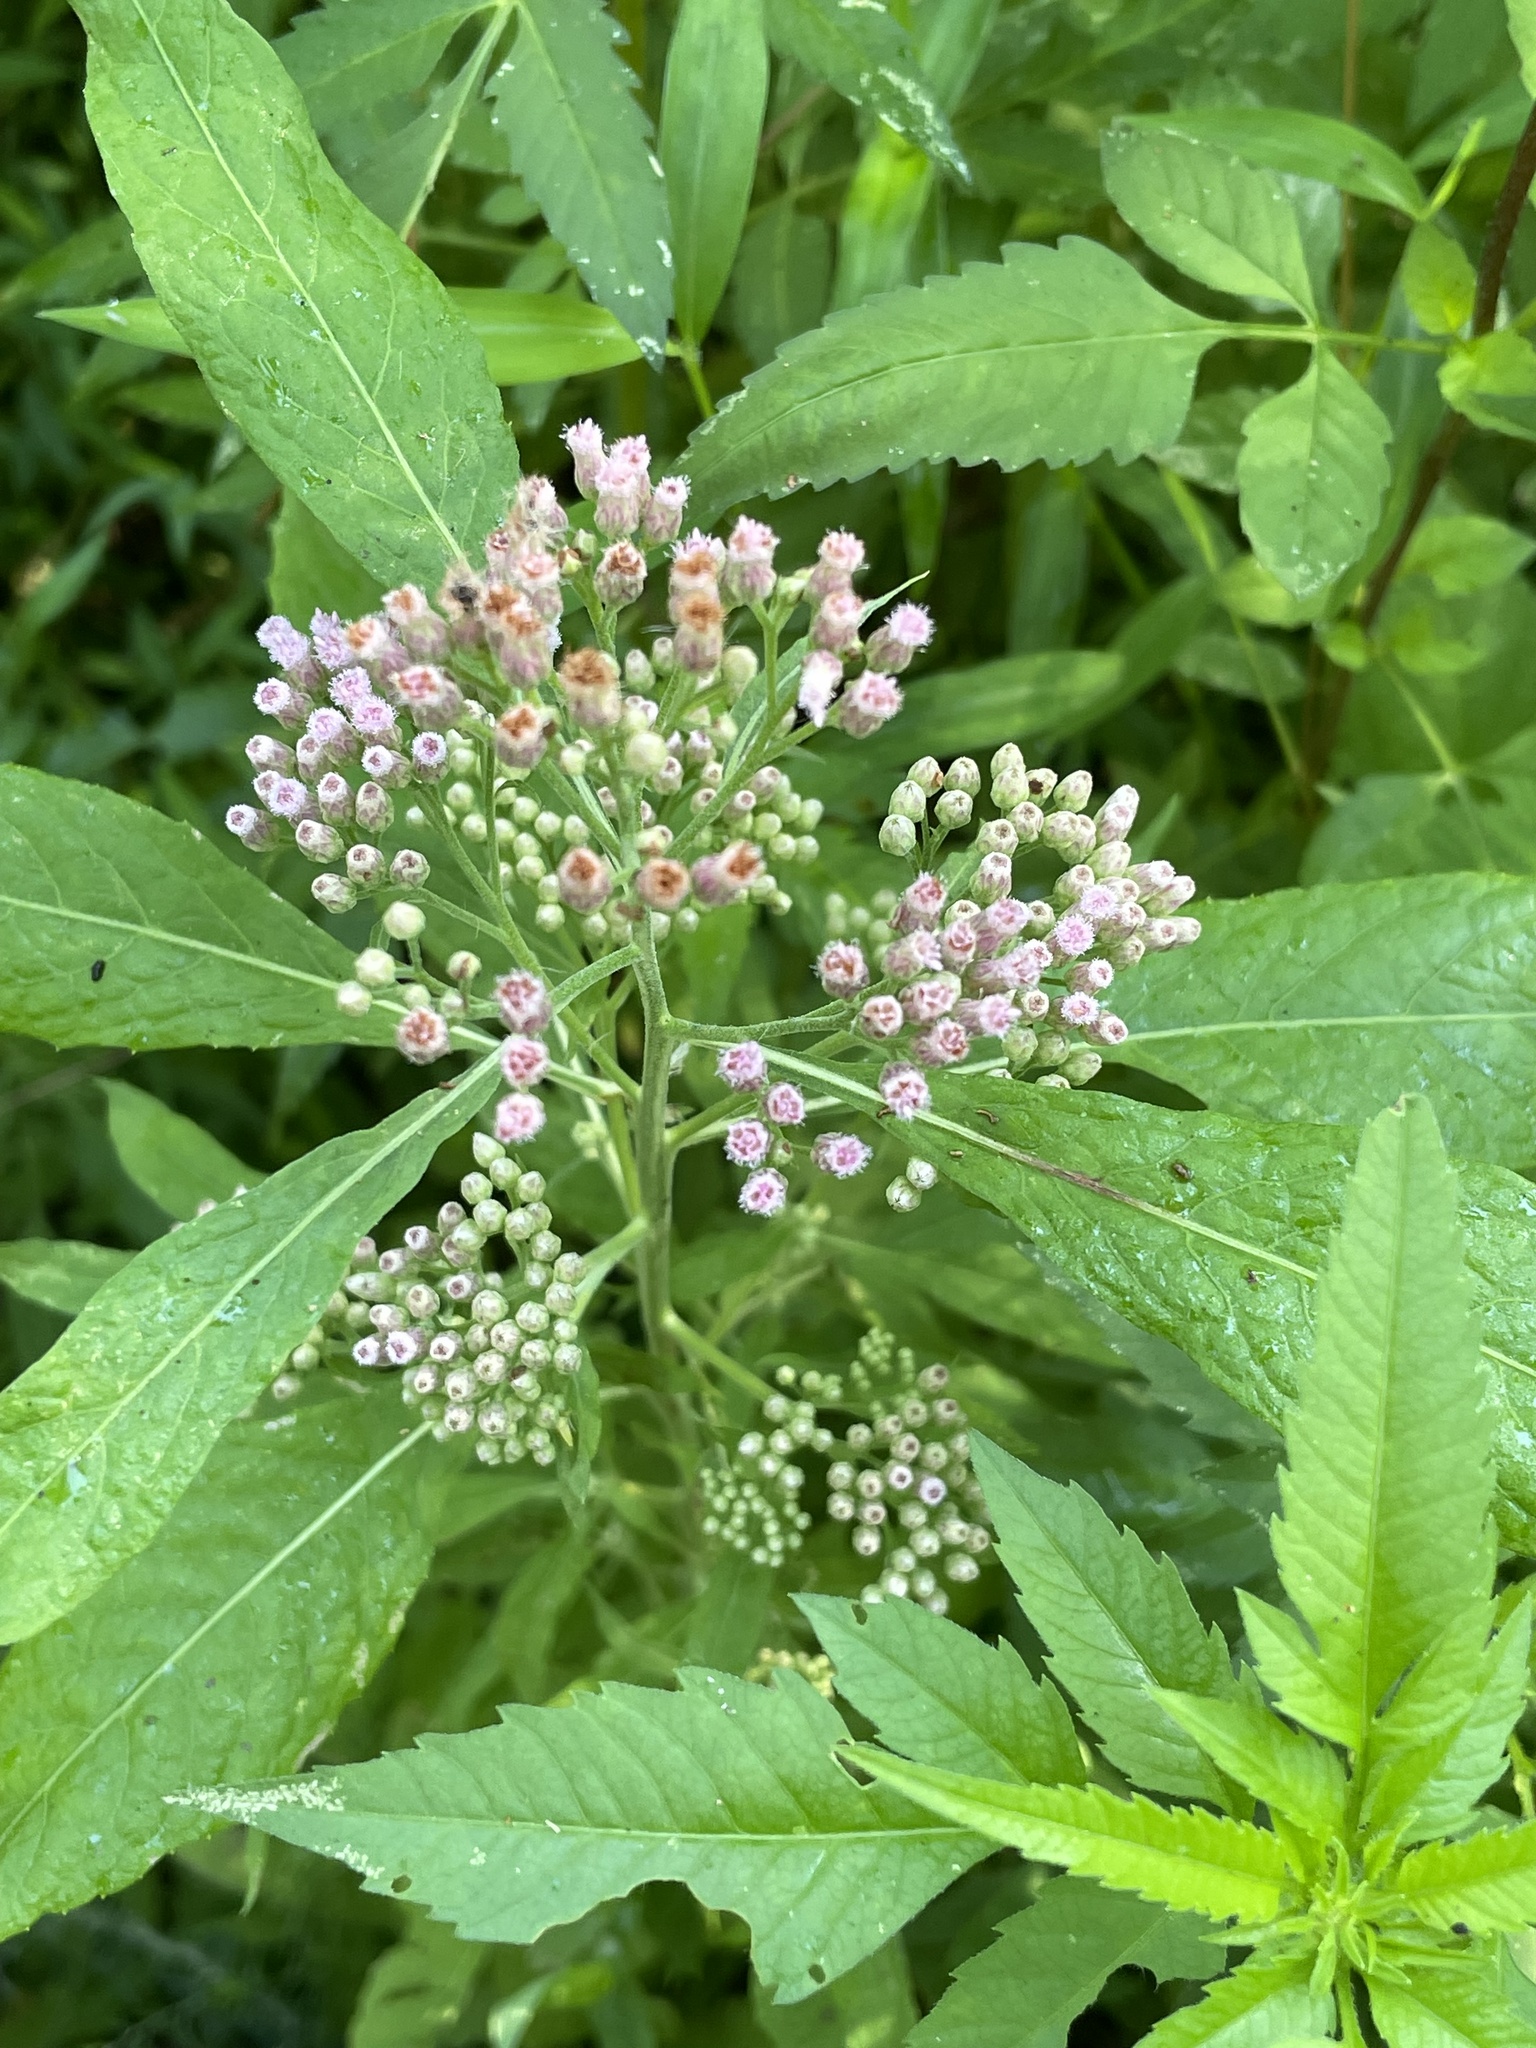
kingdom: Plantae
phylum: Tracheophyta
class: Magnoliopsida
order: Asterales
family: Asteraceae
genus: Pluchea
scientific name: Pluchea camphorata
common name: Camphor pluchea
